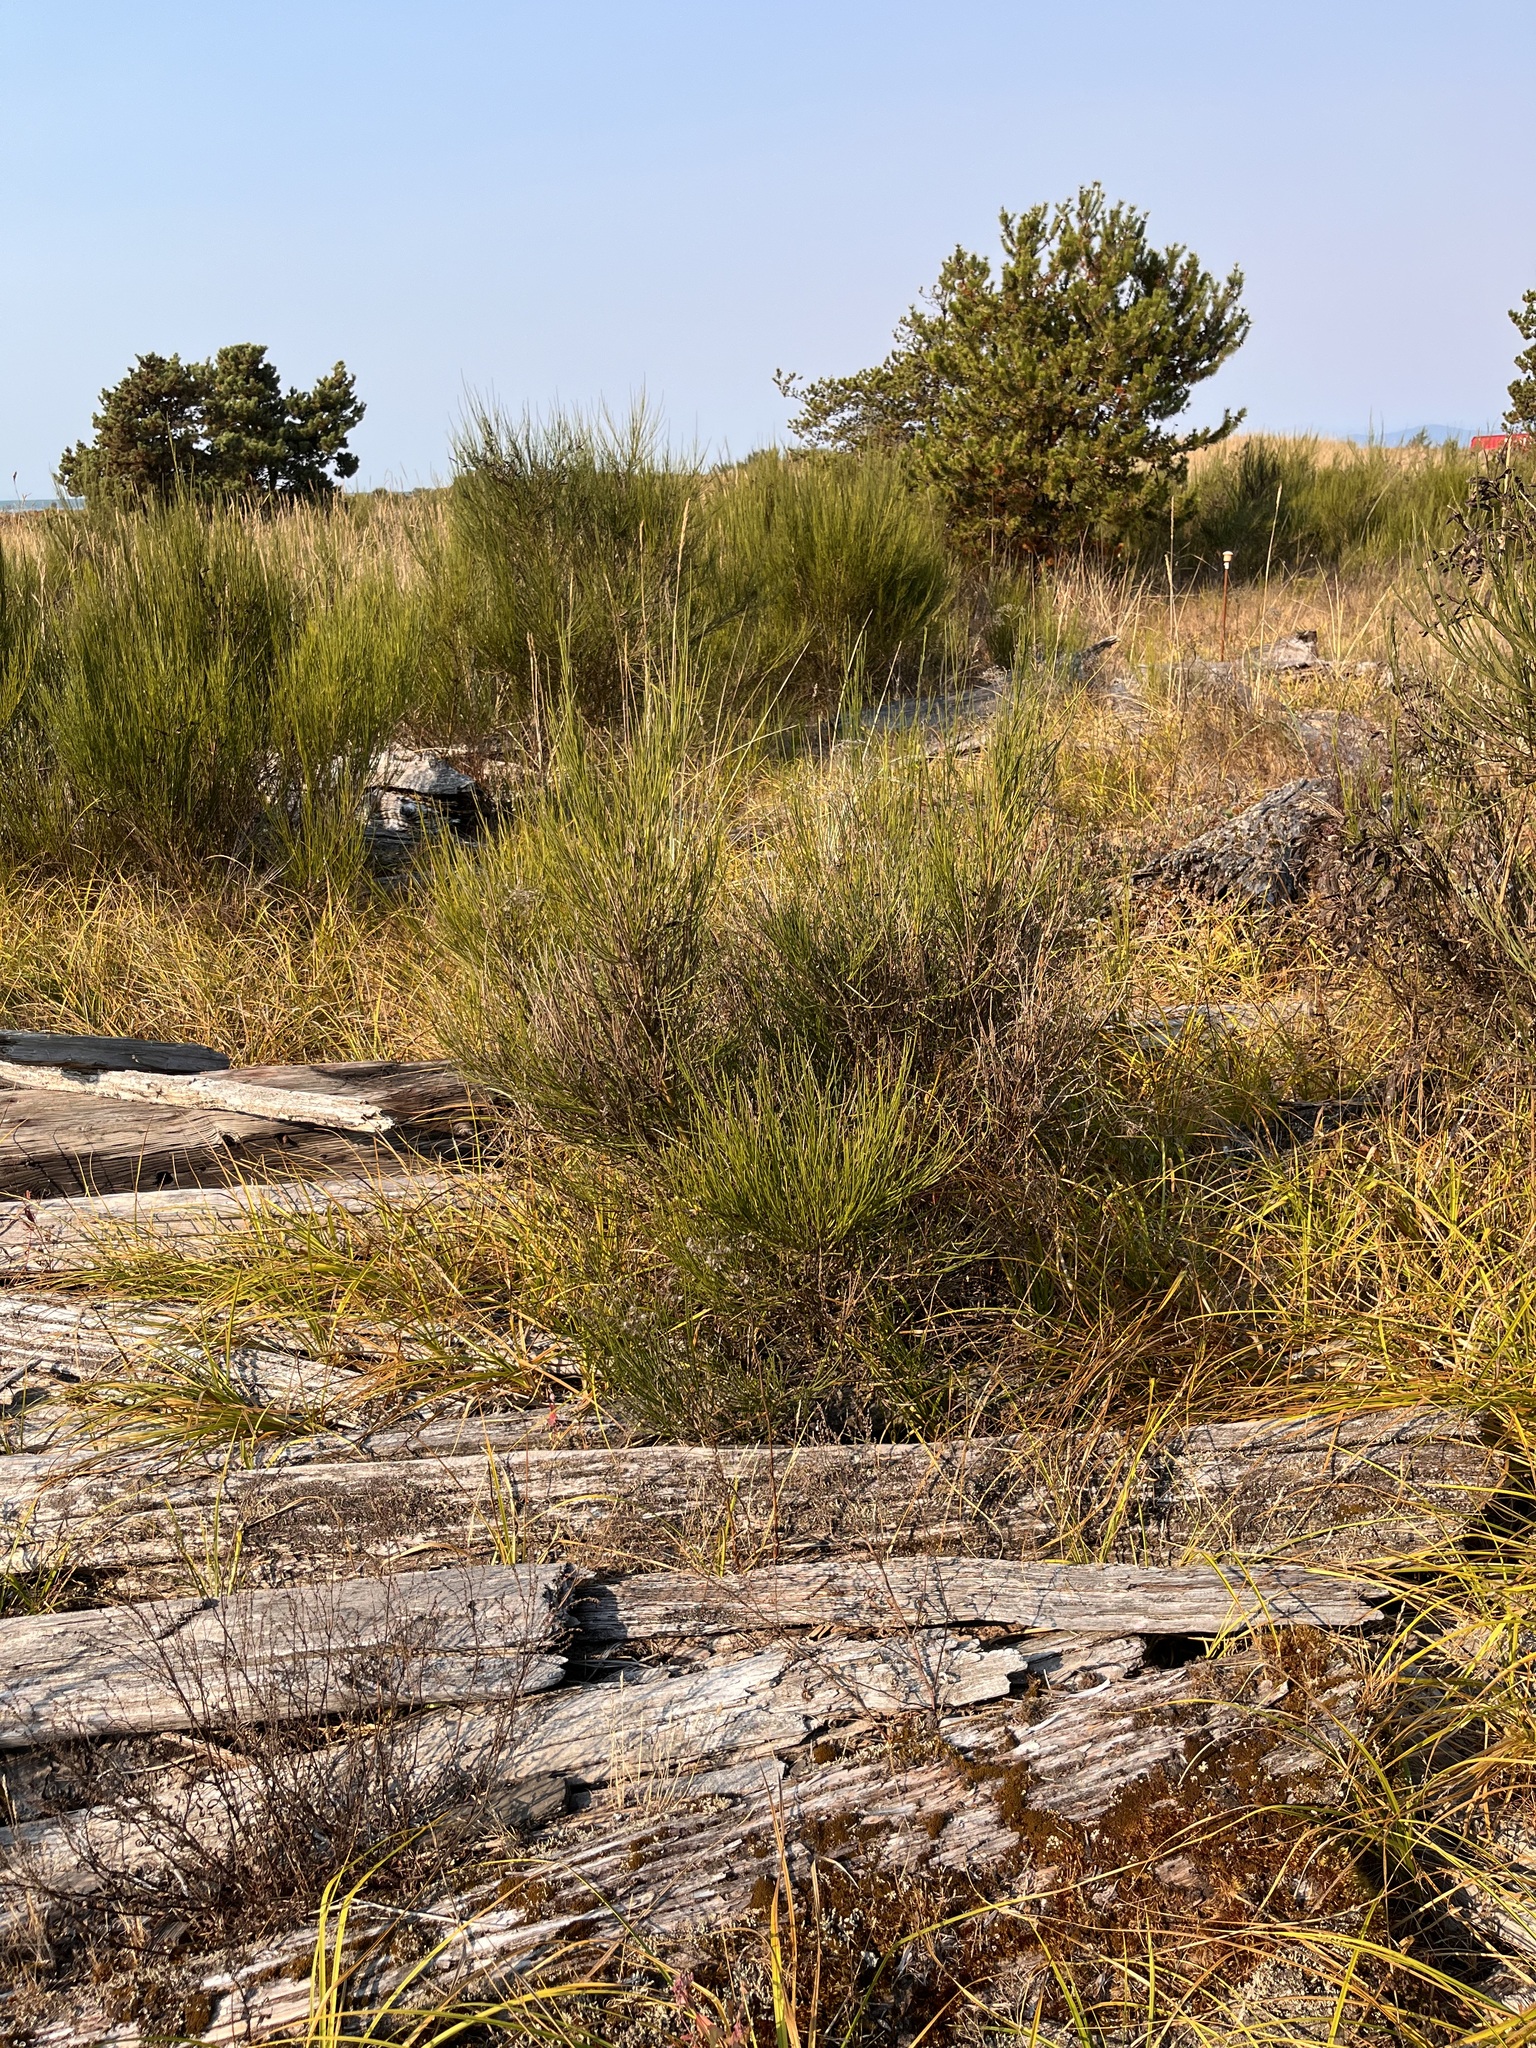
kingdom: Plantae
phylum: Tracheophyta
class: Magnoliopsida
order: Fabales
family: Fabaceae
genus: Cytisus
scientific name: Cytisus scoparius
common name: Scotch broom
